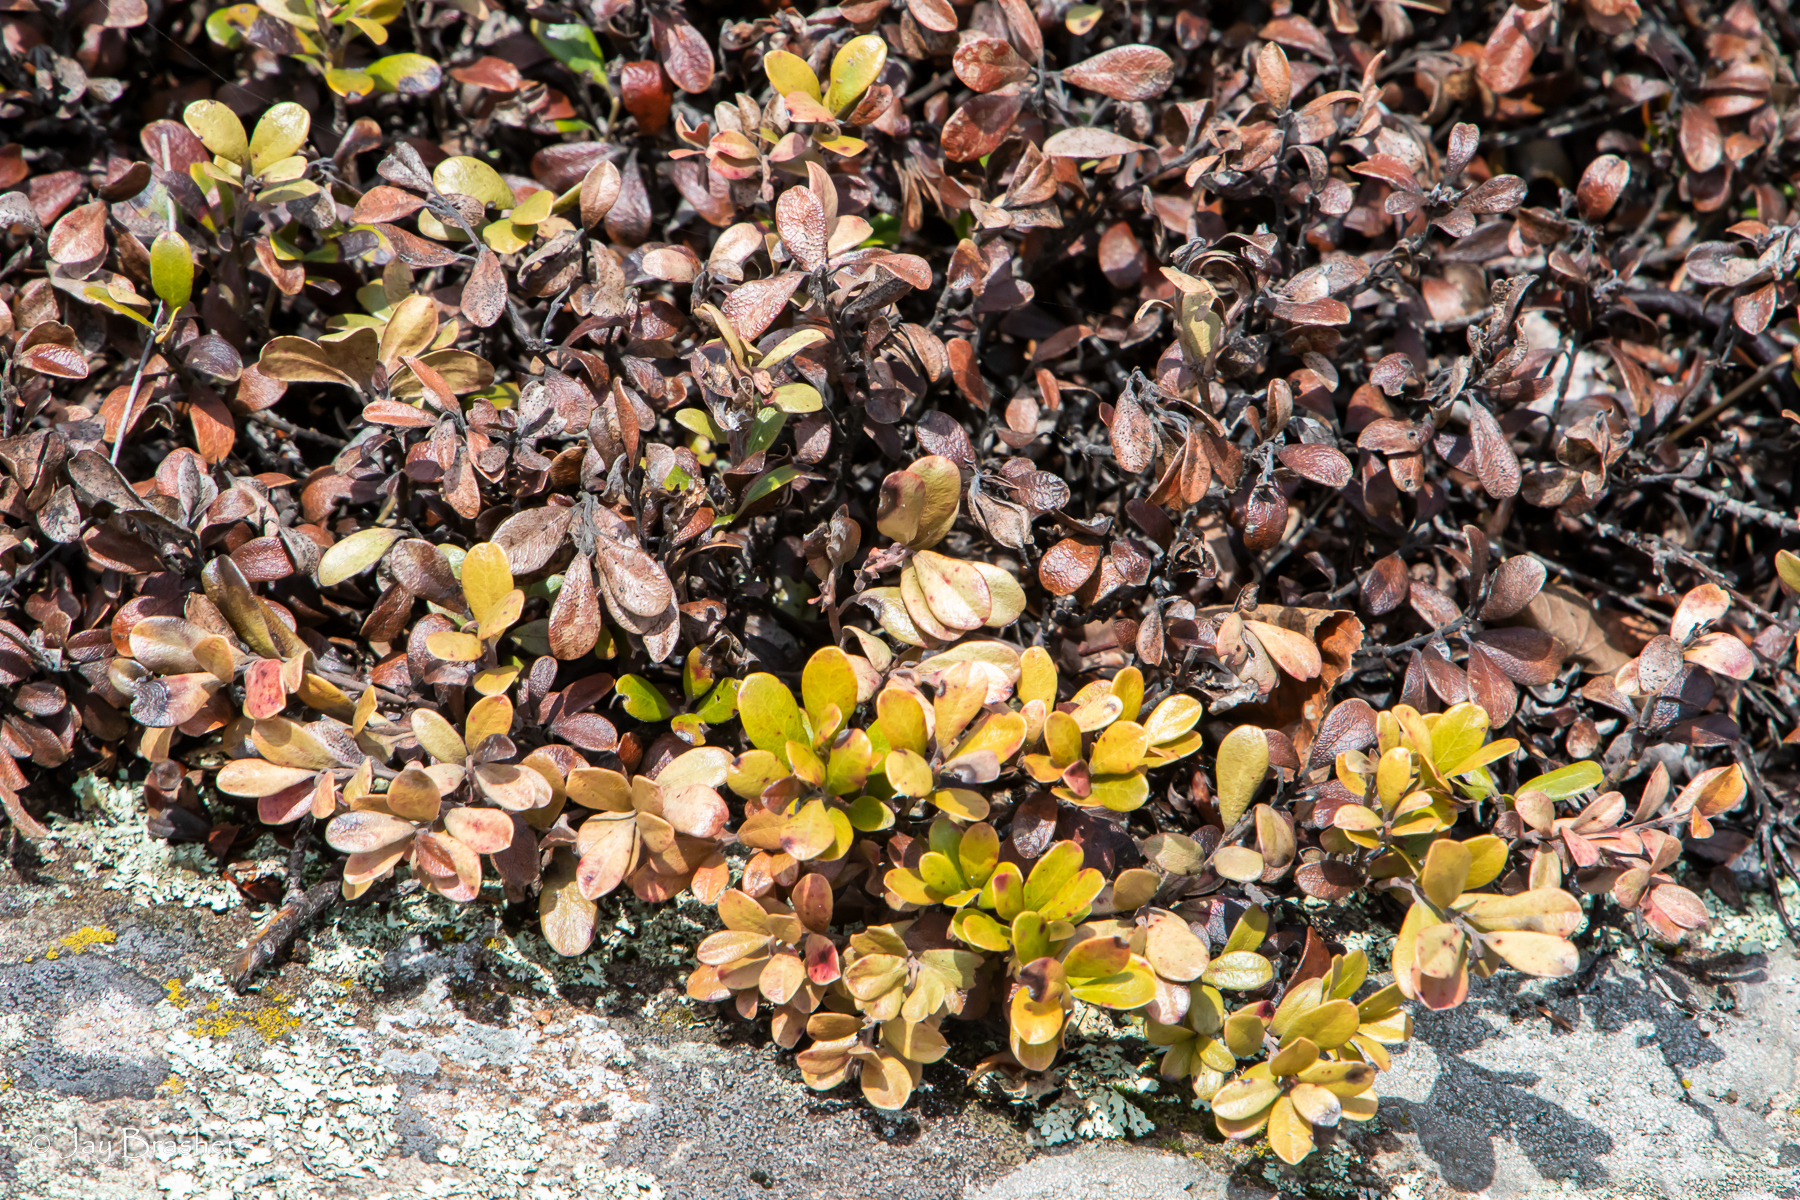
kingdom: Plantae
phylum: Tracheophyta
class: Magnoliopsida
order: Ericales
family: Ericaceae
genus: Arctostaphylos
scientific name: Arctostaphylos uva-ursi
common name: Bearberry
